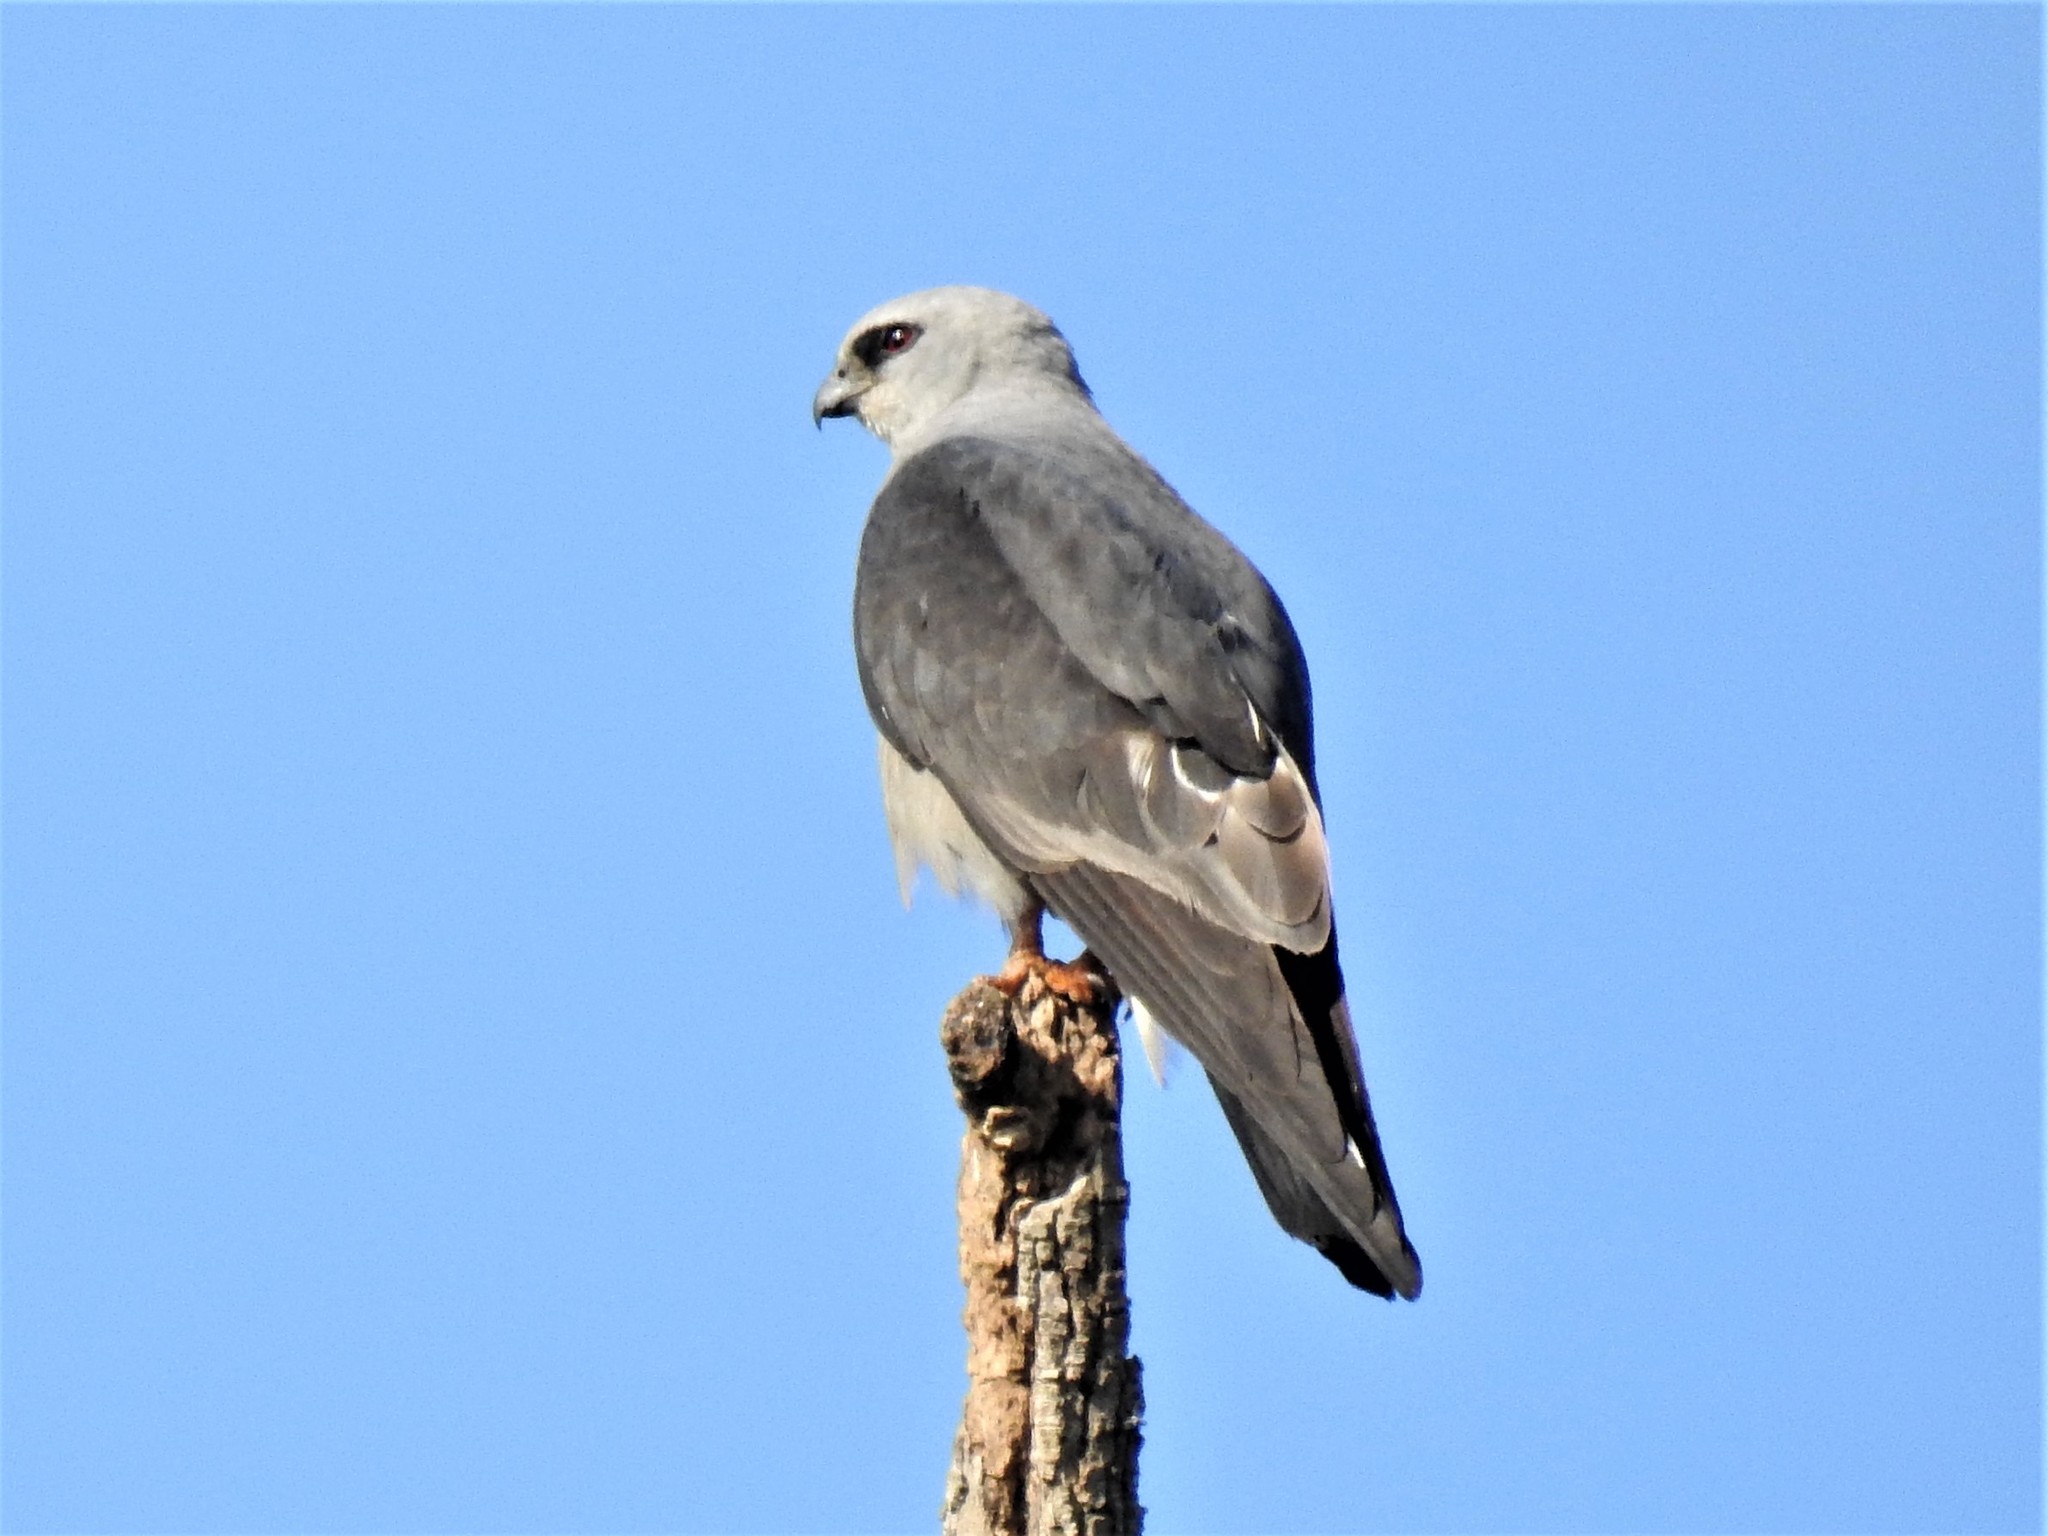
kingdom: Animalia
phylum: Chordata
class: Aves
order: Accipitriformes
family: Accipitridae
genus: Ictinia
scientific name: Ictinia mississippiensis
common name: Mississippi kite
